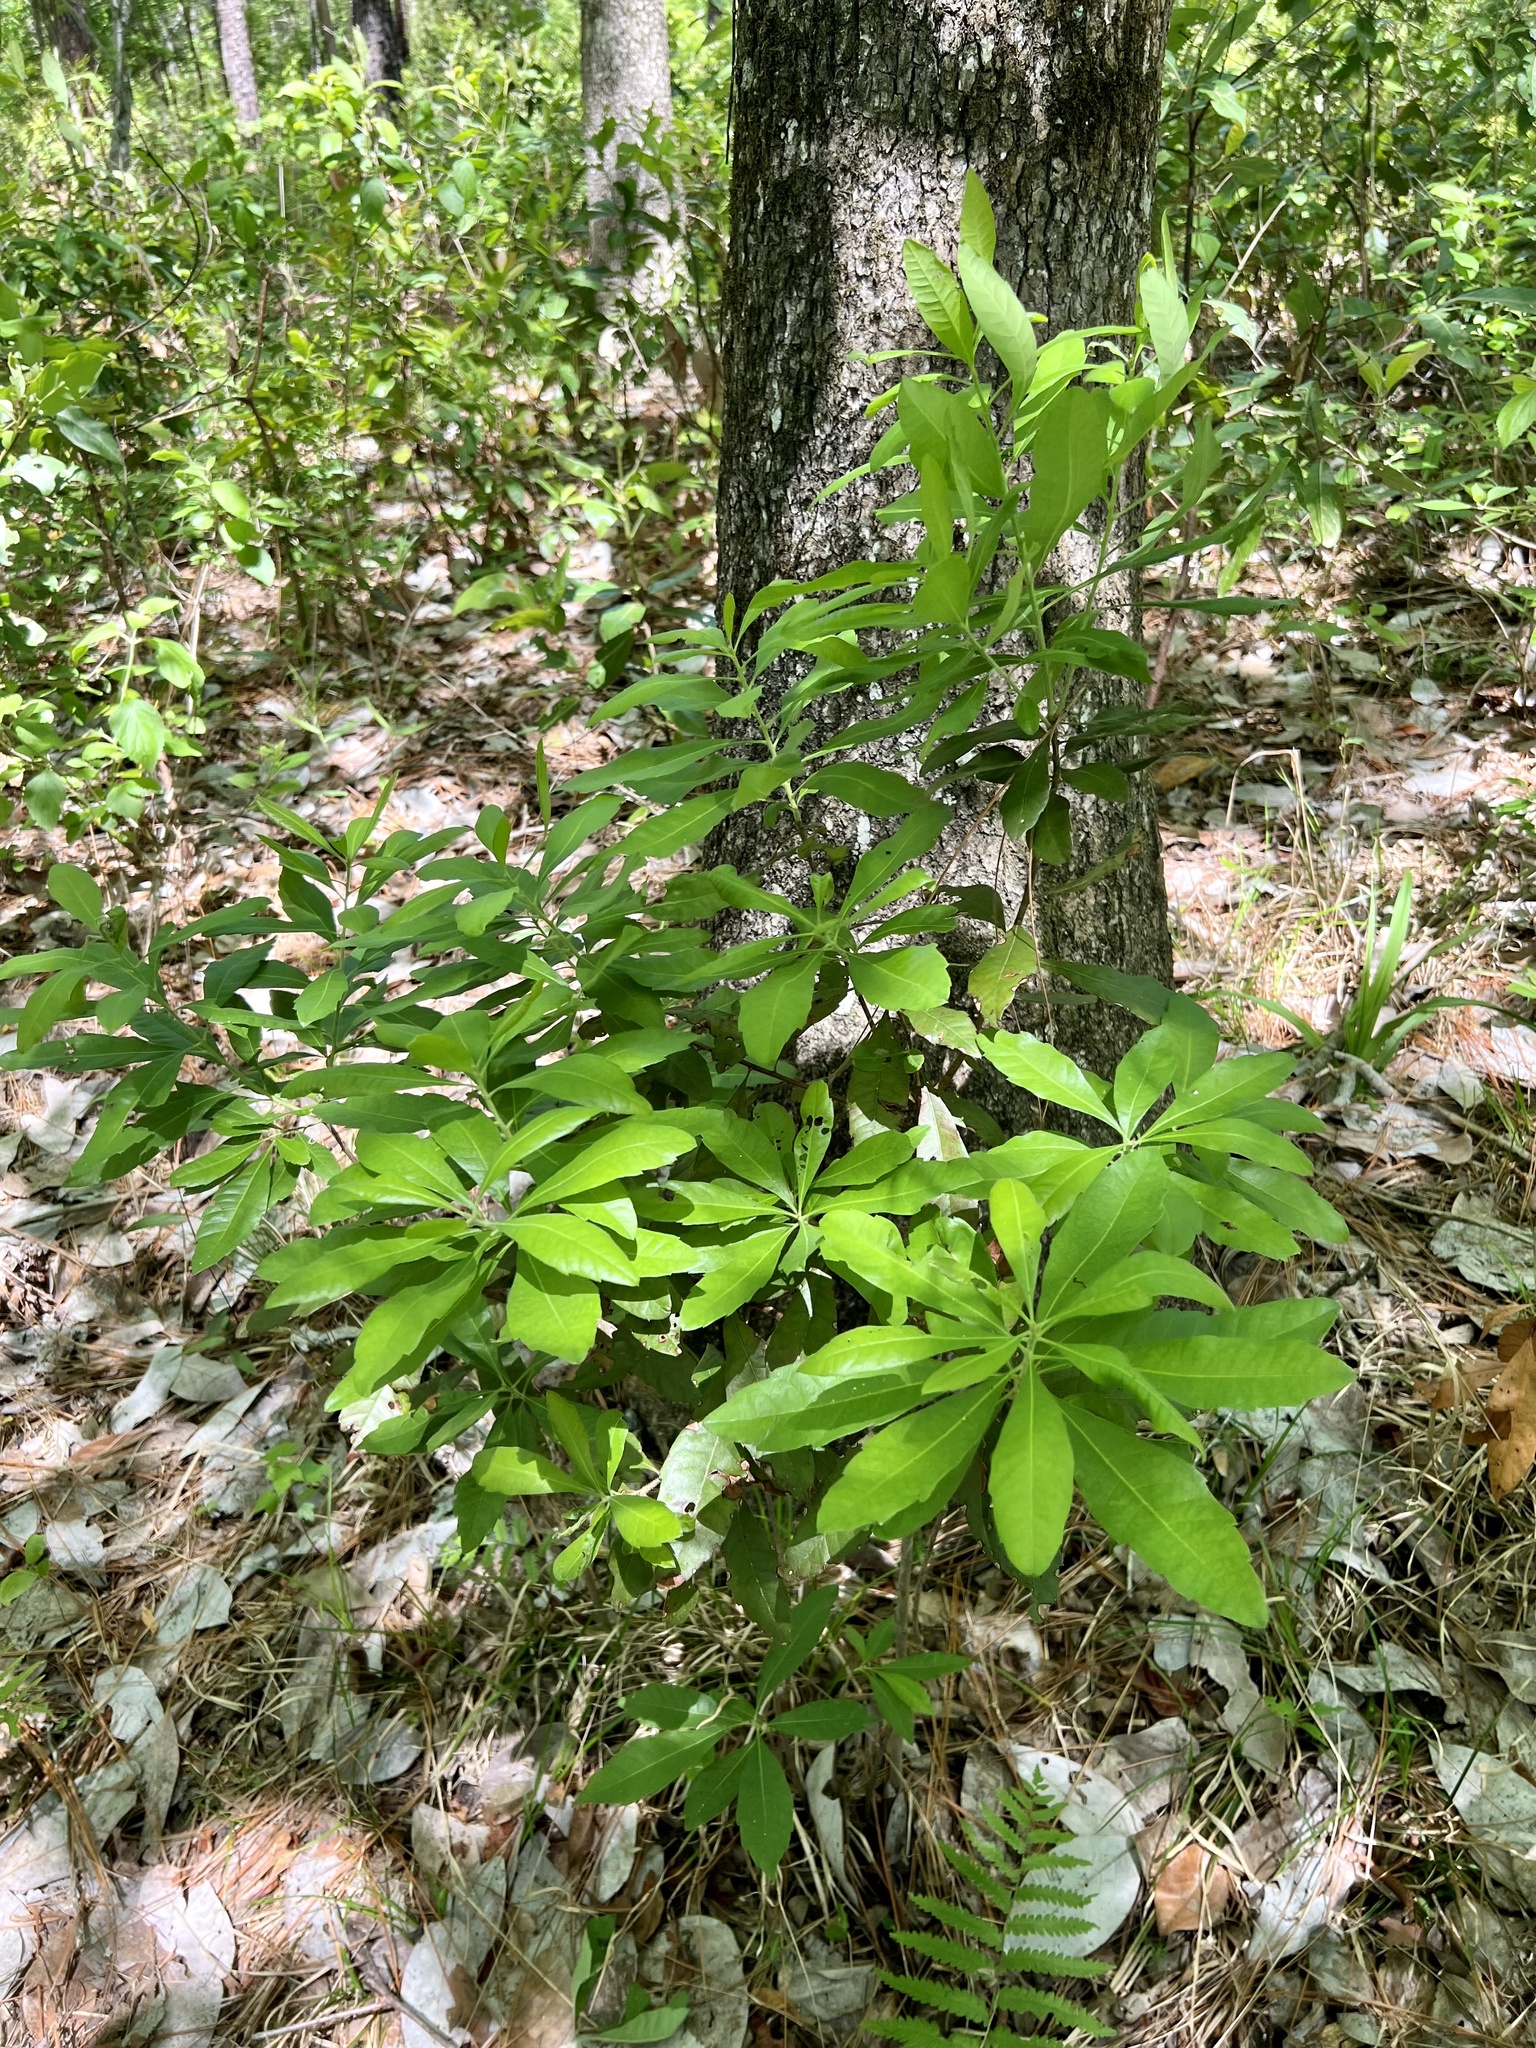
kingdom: Plantae
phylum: Tracheophyta
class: Magnoliopsida
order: Fagales
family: Myricaceae
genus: Morella
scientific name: Morella caroliniensis
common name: Evergreen bayberry
